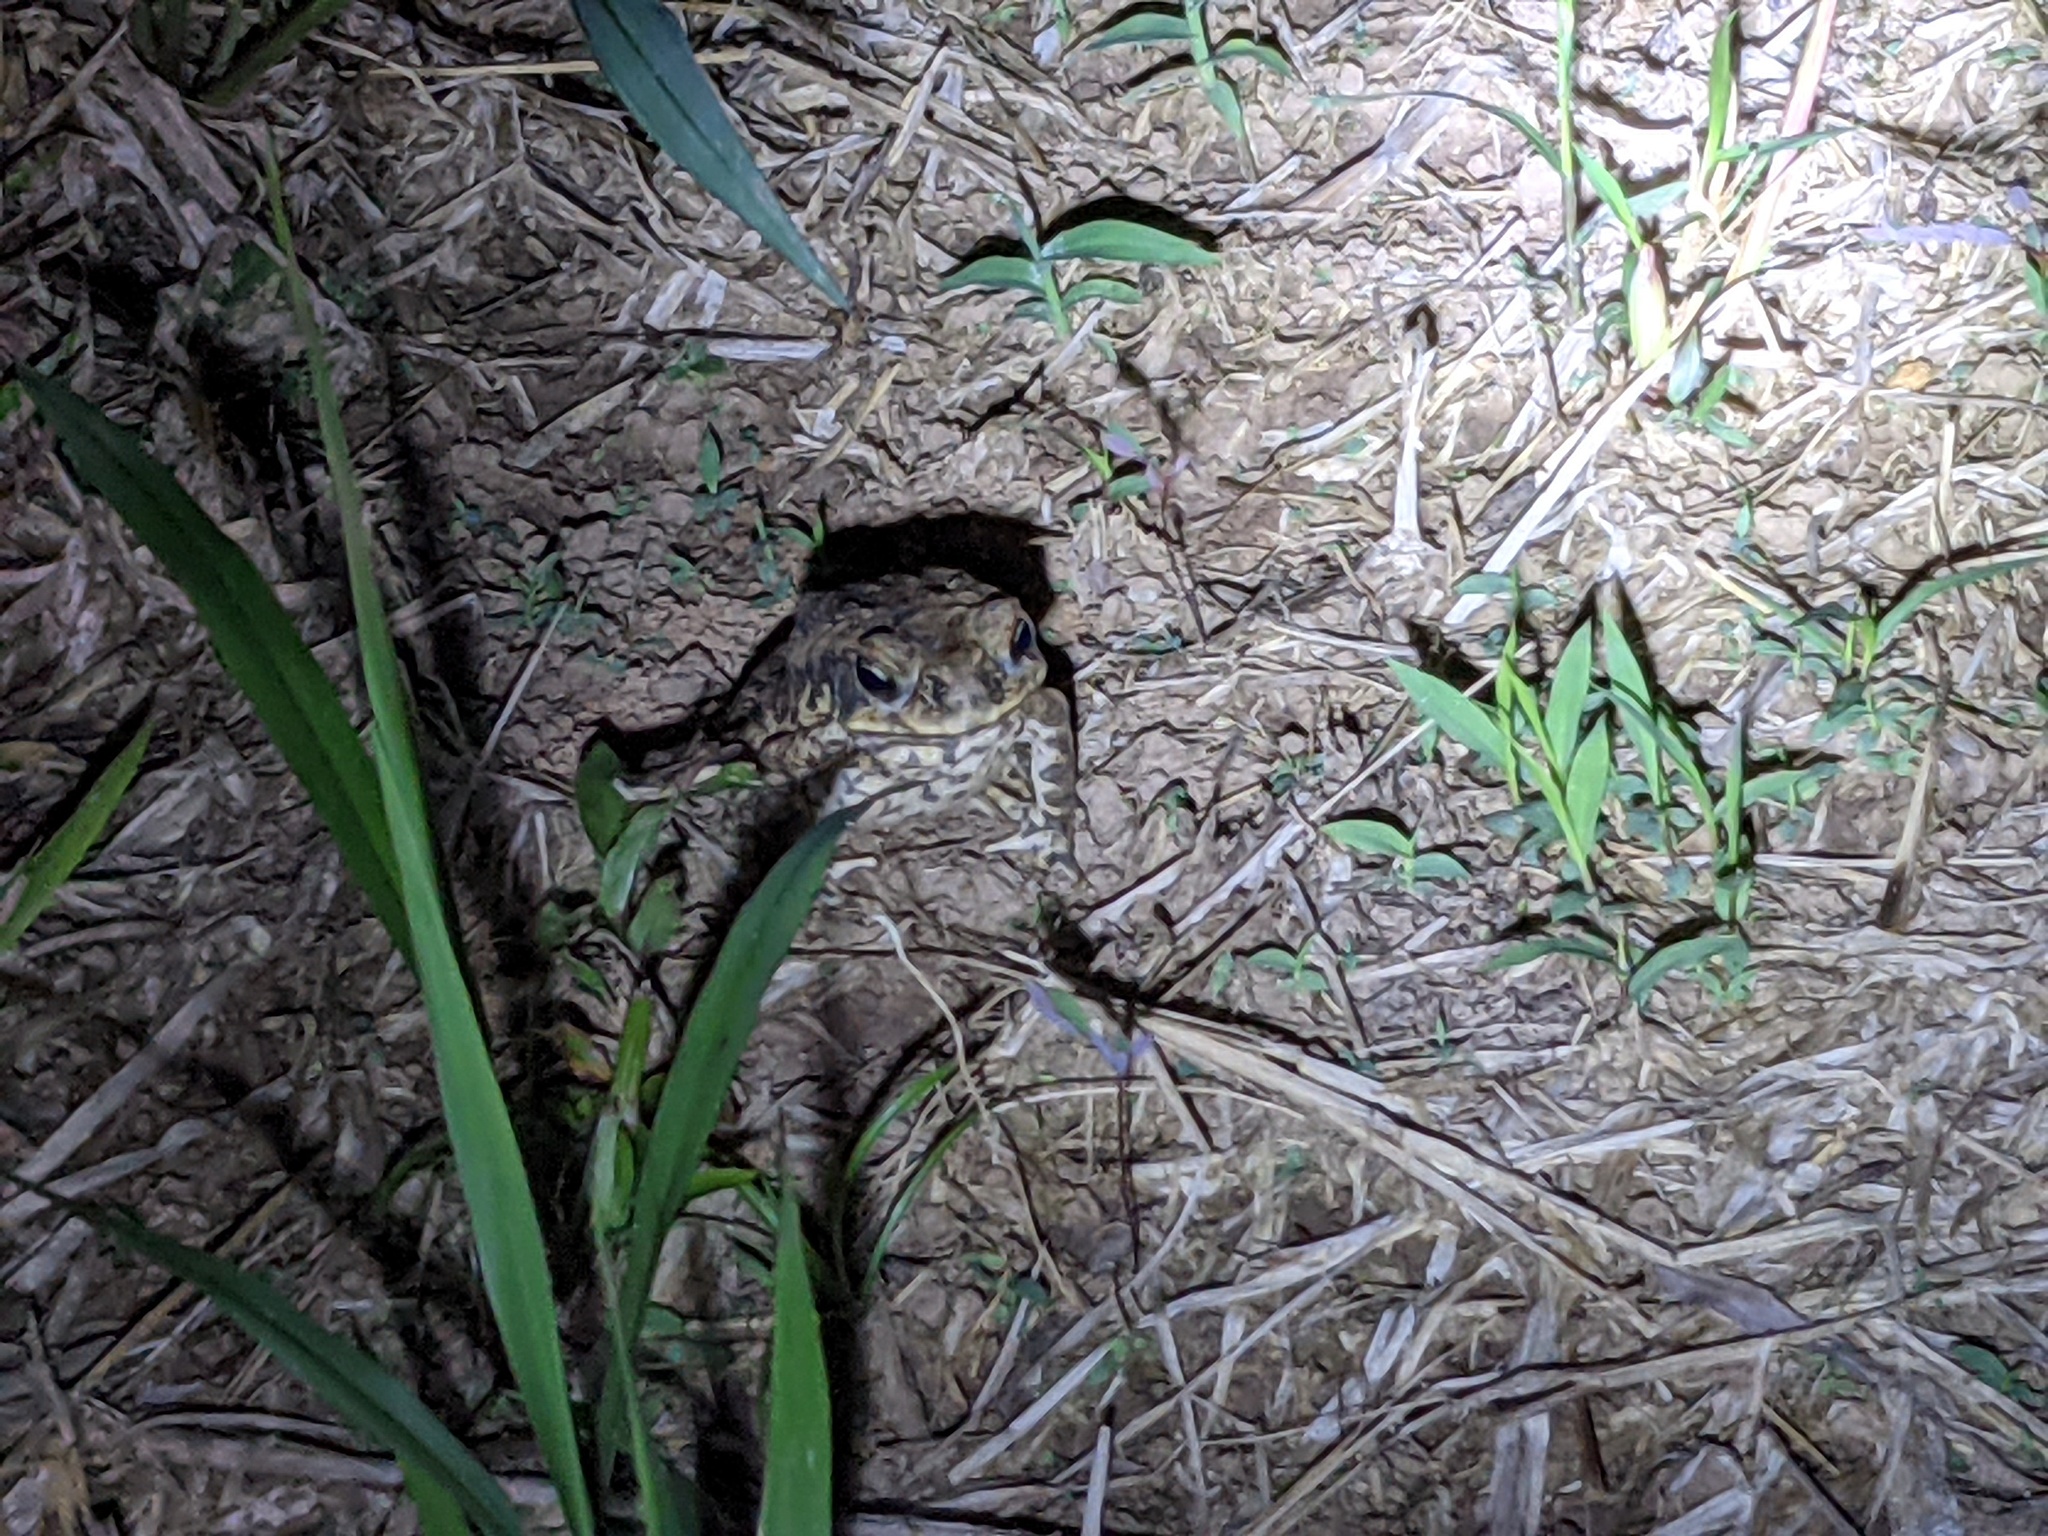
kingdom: Animalia
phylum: Chordata
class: Amphibia
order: Anura
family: Bufonidae
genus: Rhinella
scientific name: Rhinella marina
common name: Cane toad
